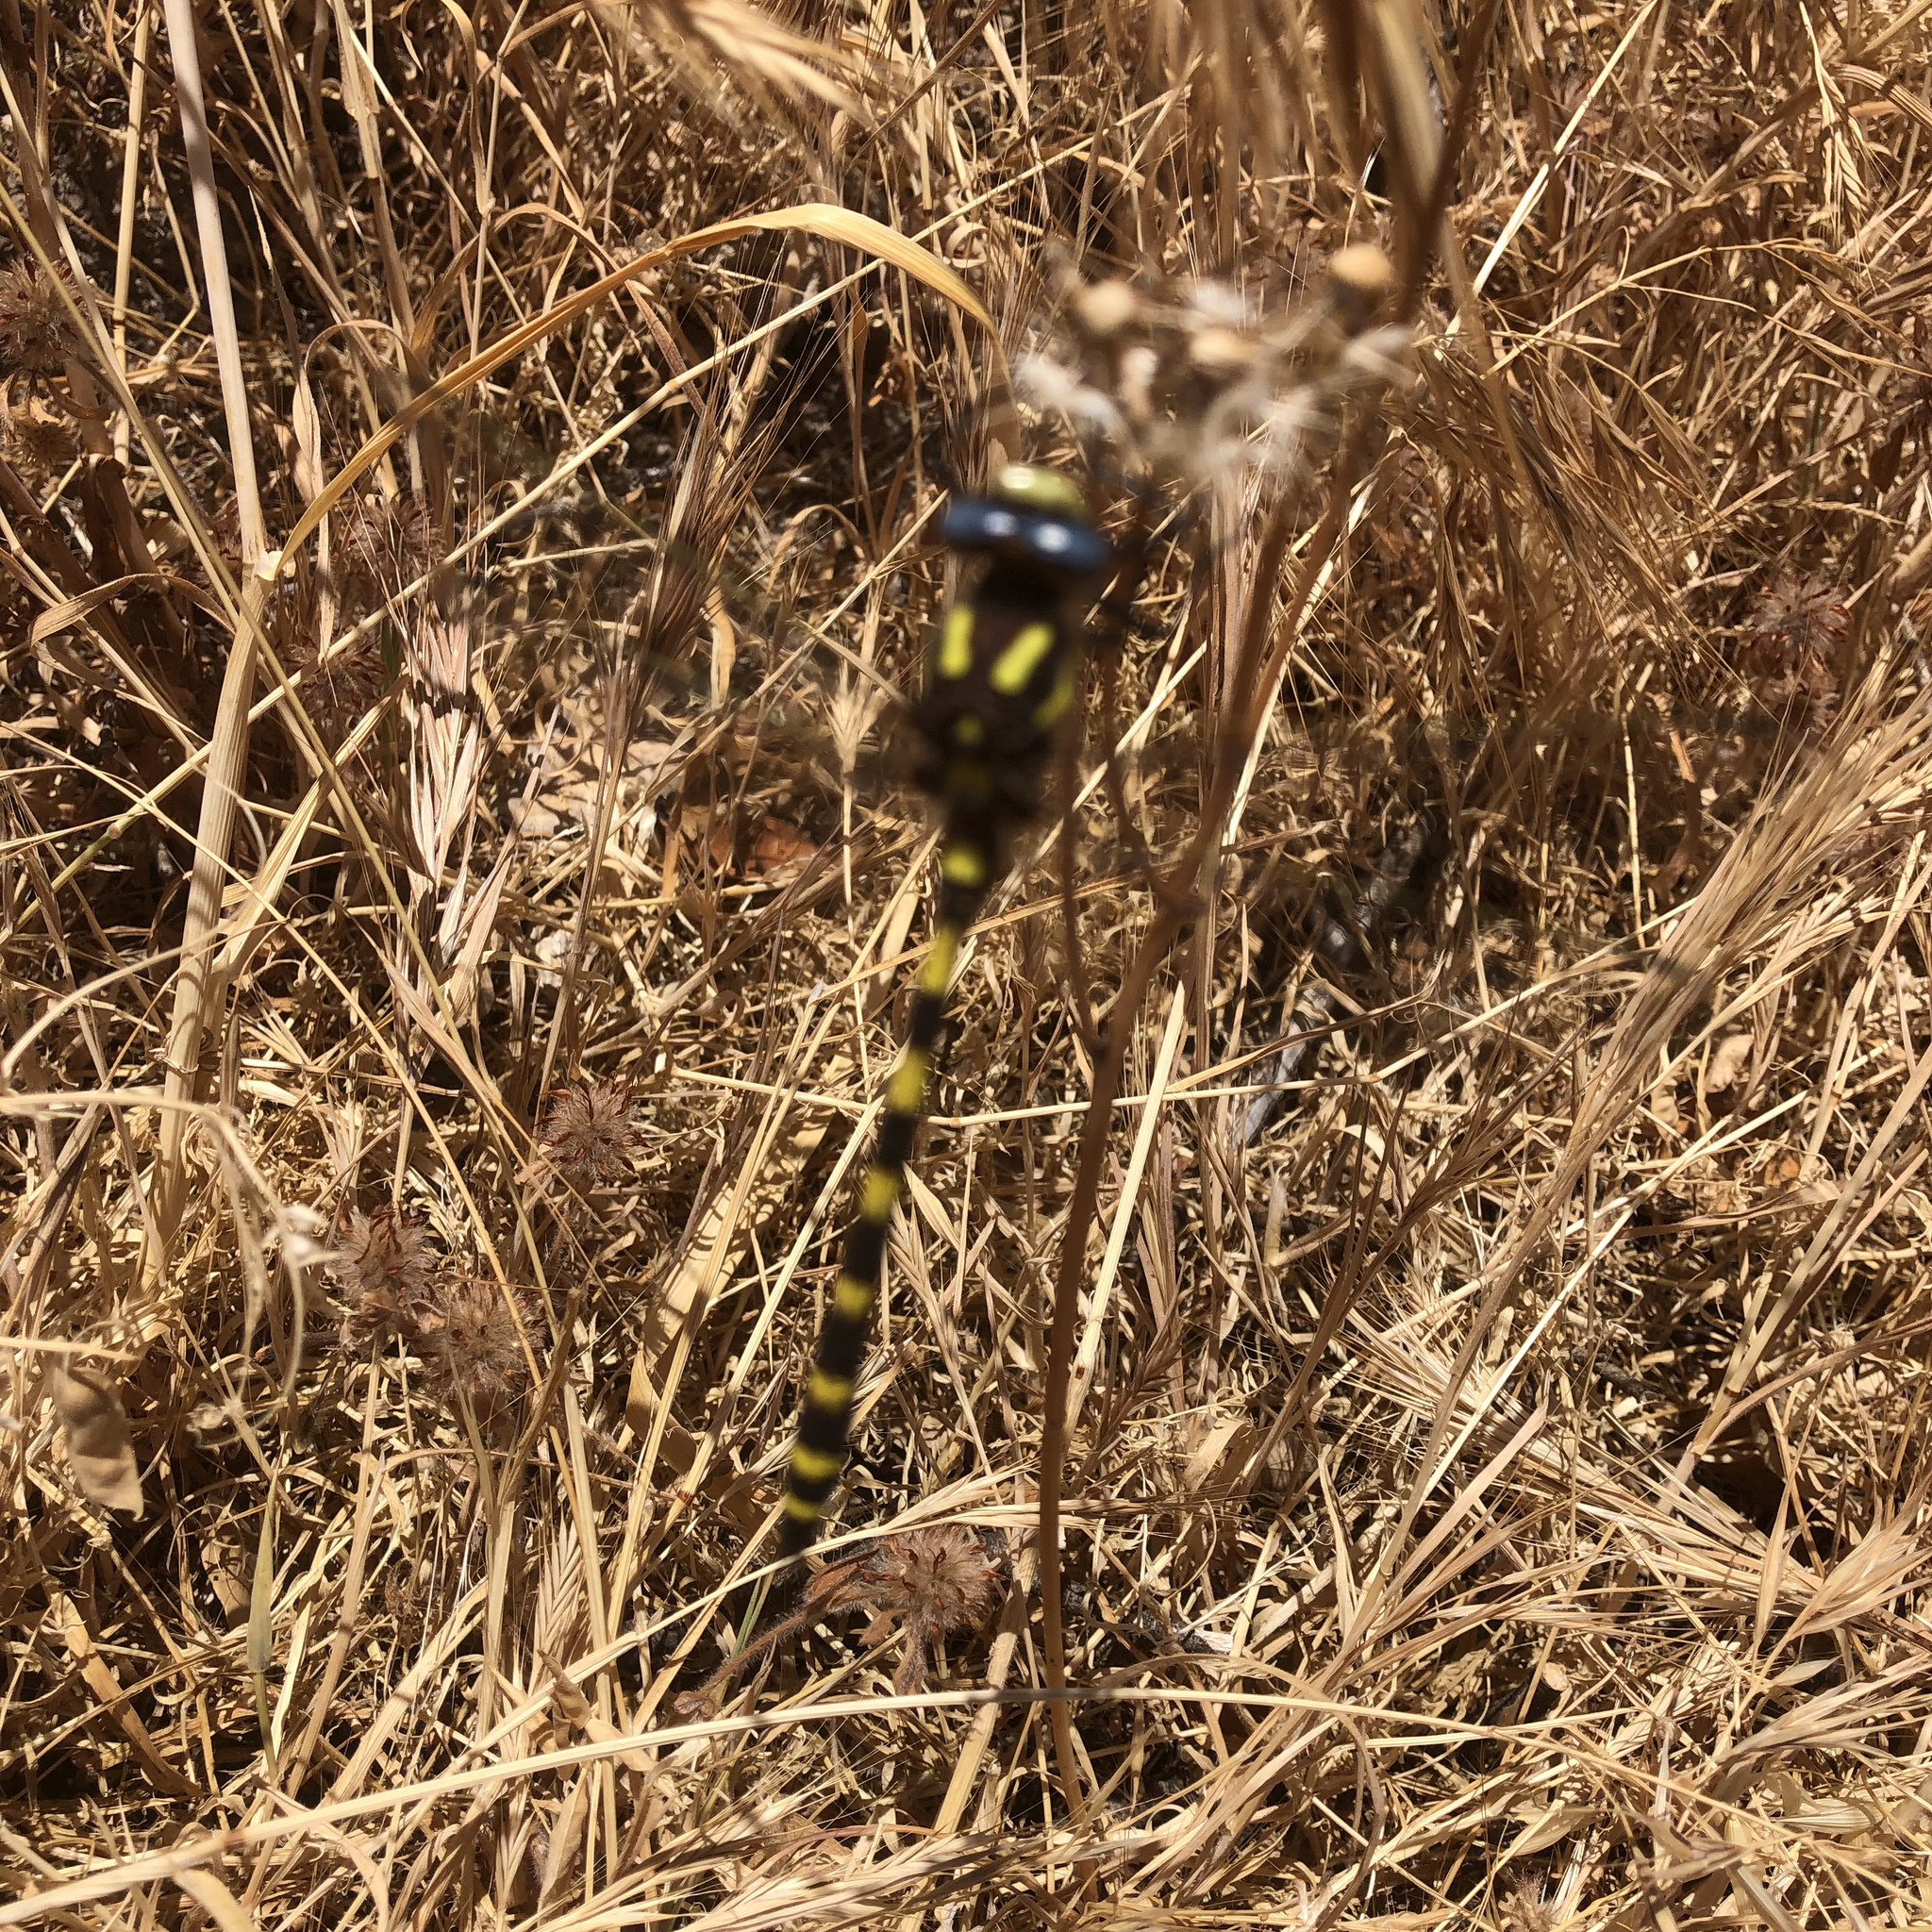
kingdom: Animalia
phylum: Arthropoda
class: Insecta
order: Odonata
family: Cordulegastridae
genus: Cordulegaster
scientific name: Cordulegaster dorsalis
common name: Pacific spiketail
